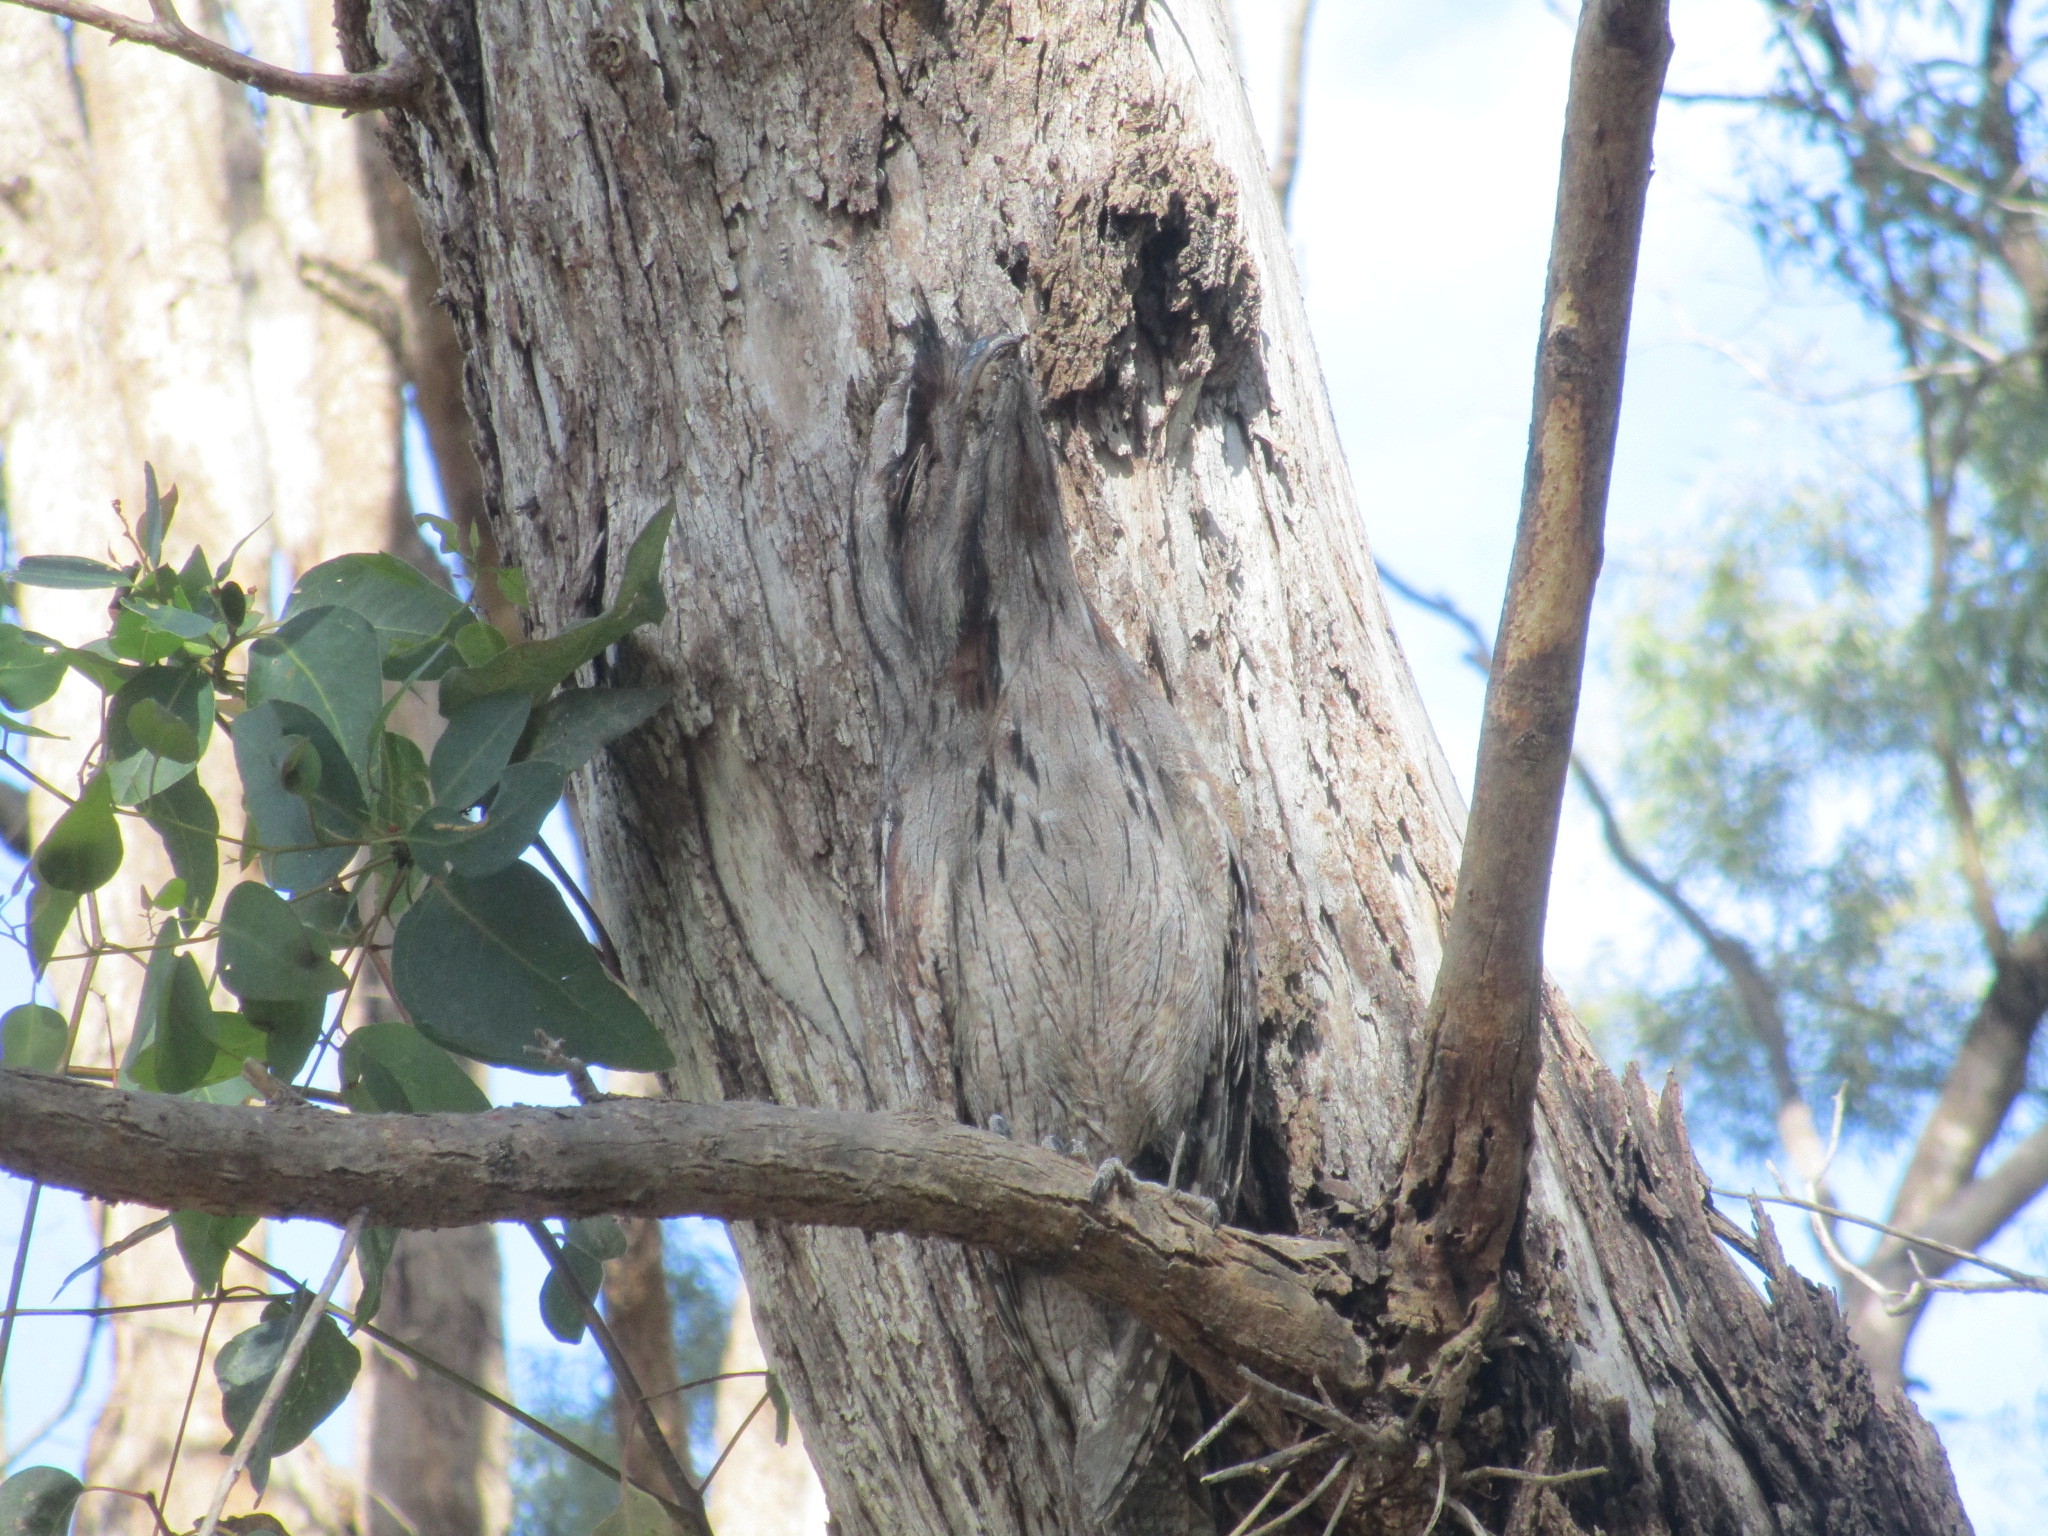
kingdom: Animalia
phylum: Chordata
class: Aves
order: Caprimulgiformes
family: Podargidae
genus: Podargus
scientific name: Podargus strigoides
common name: Tawny frogmouth
